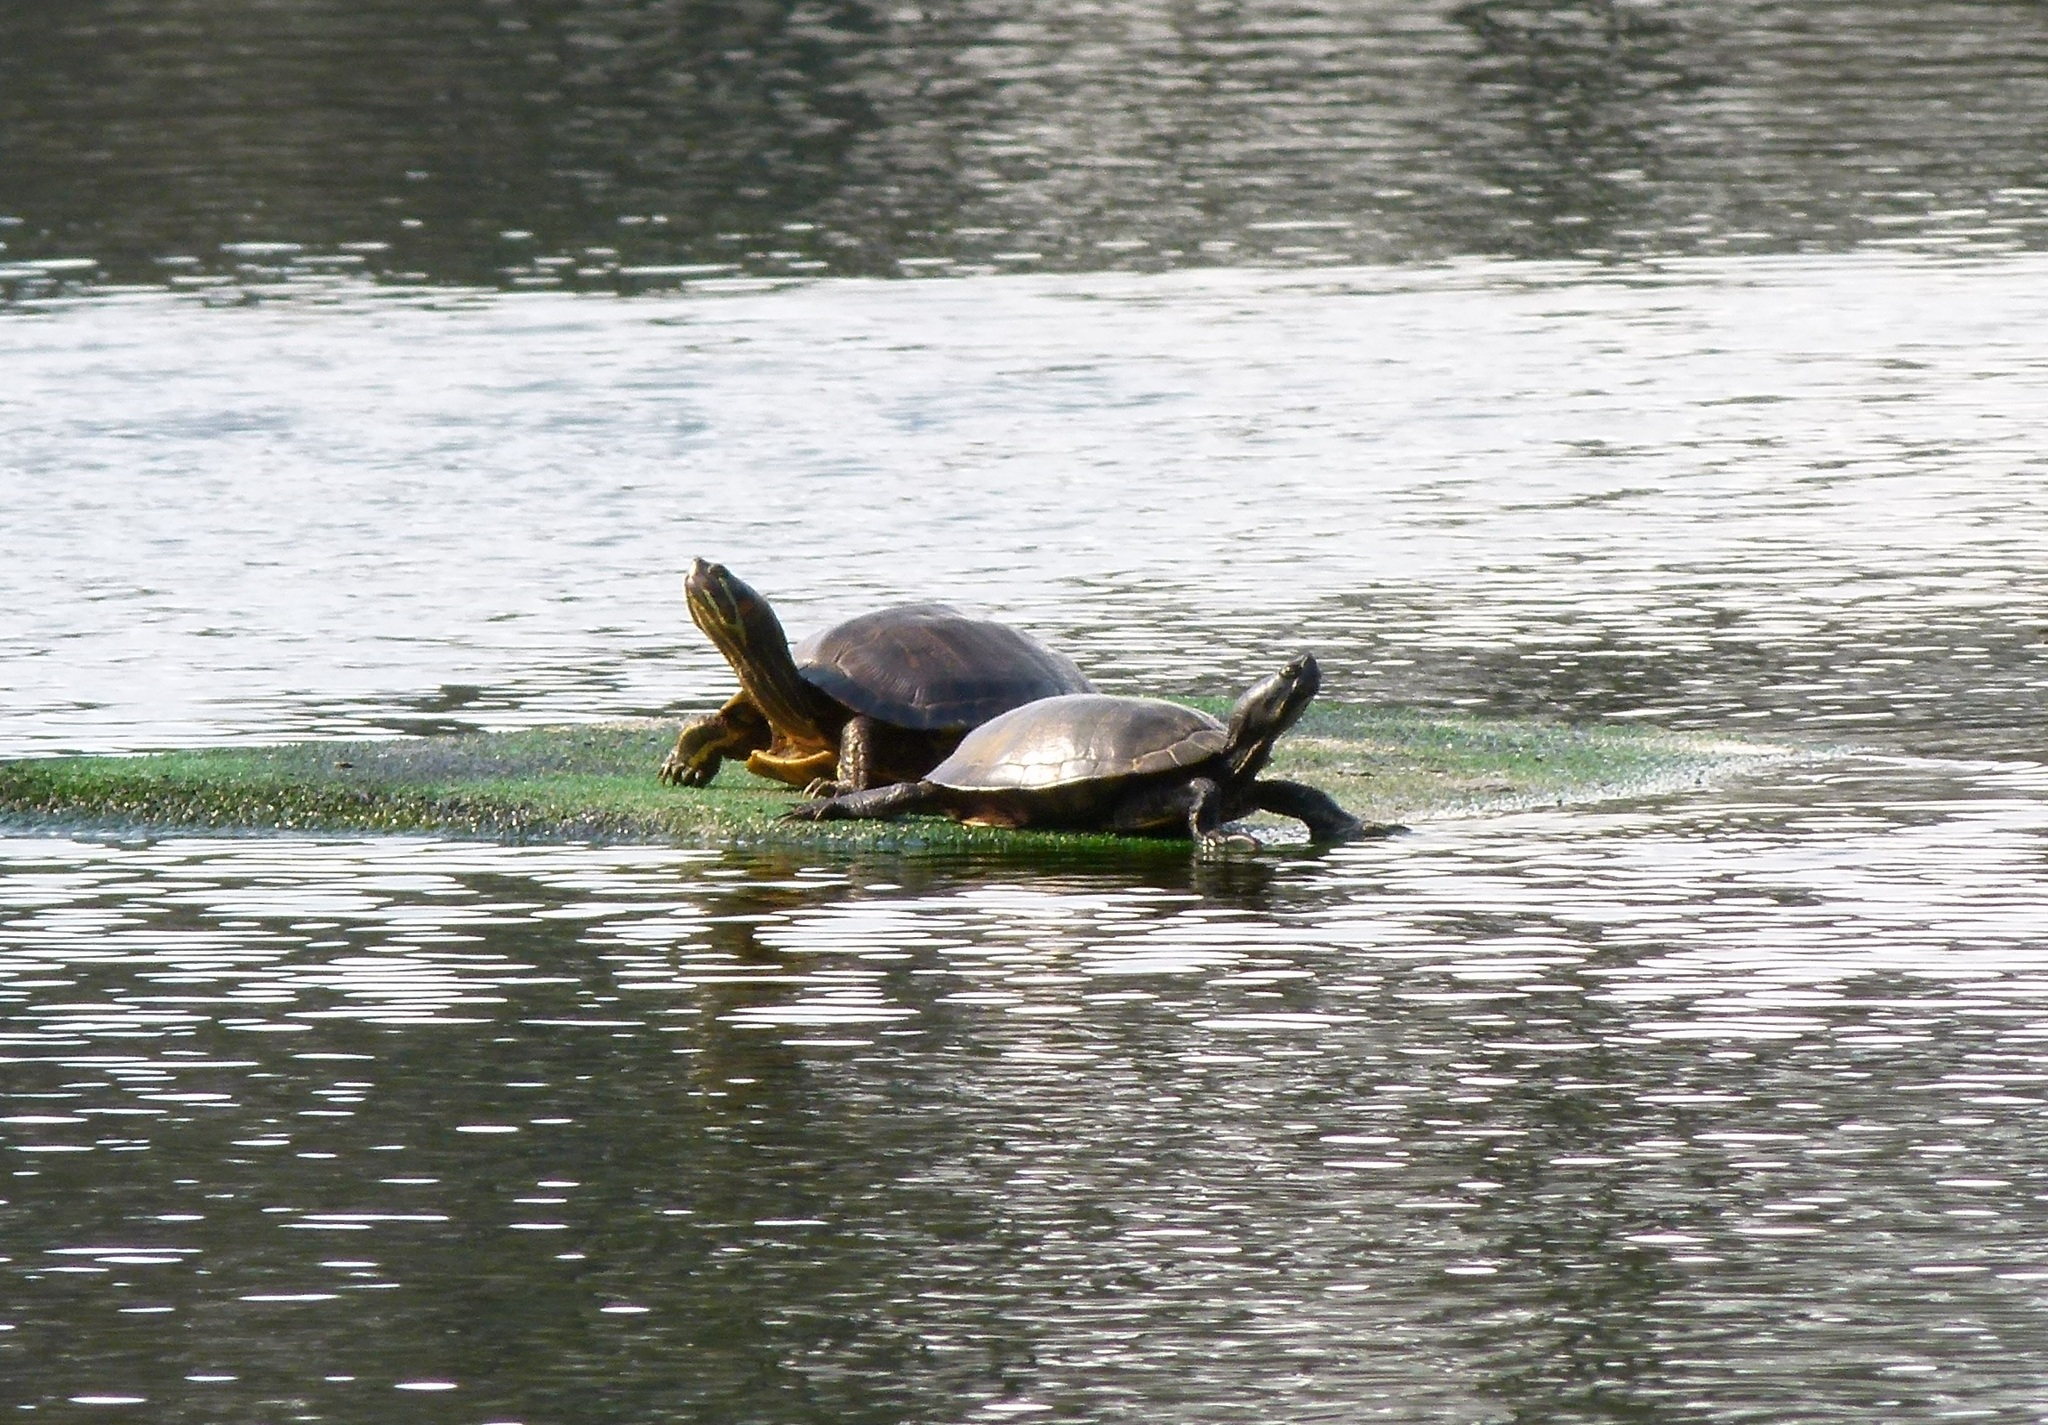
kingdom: Animalia
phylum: Chordata
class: Testudines
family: Emydidae
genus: Trachemys
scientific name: Trachemys scripta
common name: Slider
